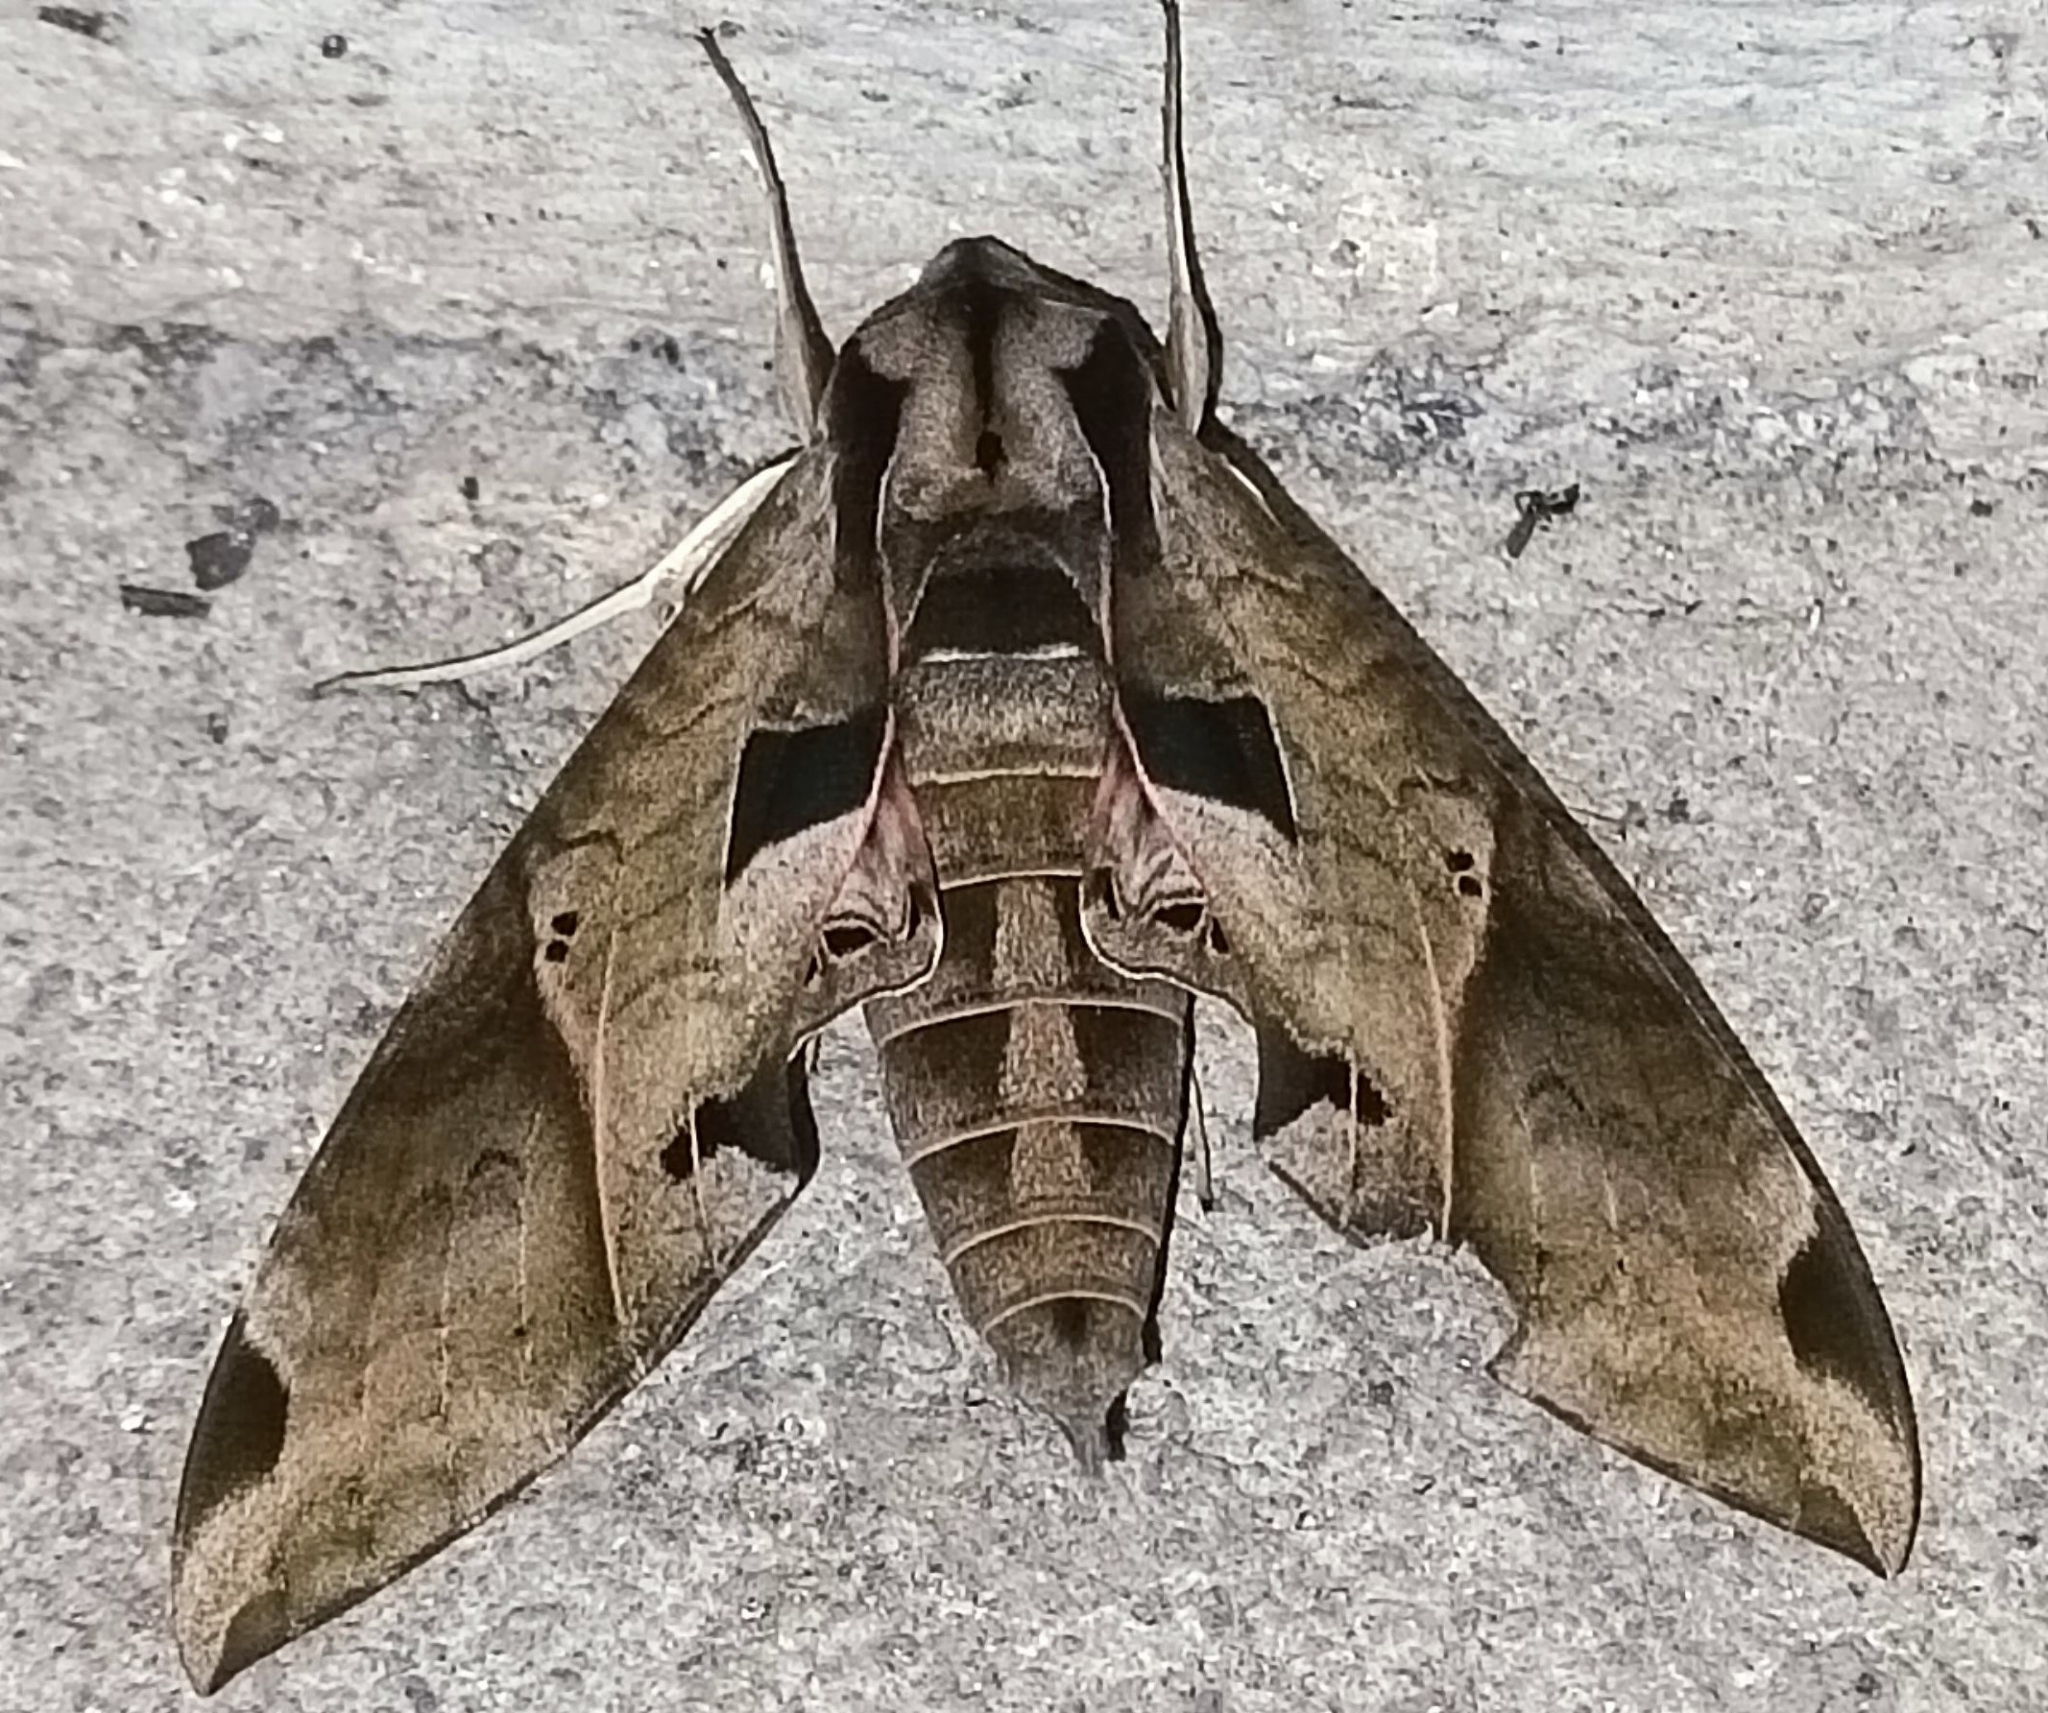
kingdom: Animalia
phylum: Arthropoda
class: Insecta
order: Lepidoptera
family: Sphingidae
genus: Eumorpha
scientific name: Eumorpha satellitia
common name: Satellite sphinx
